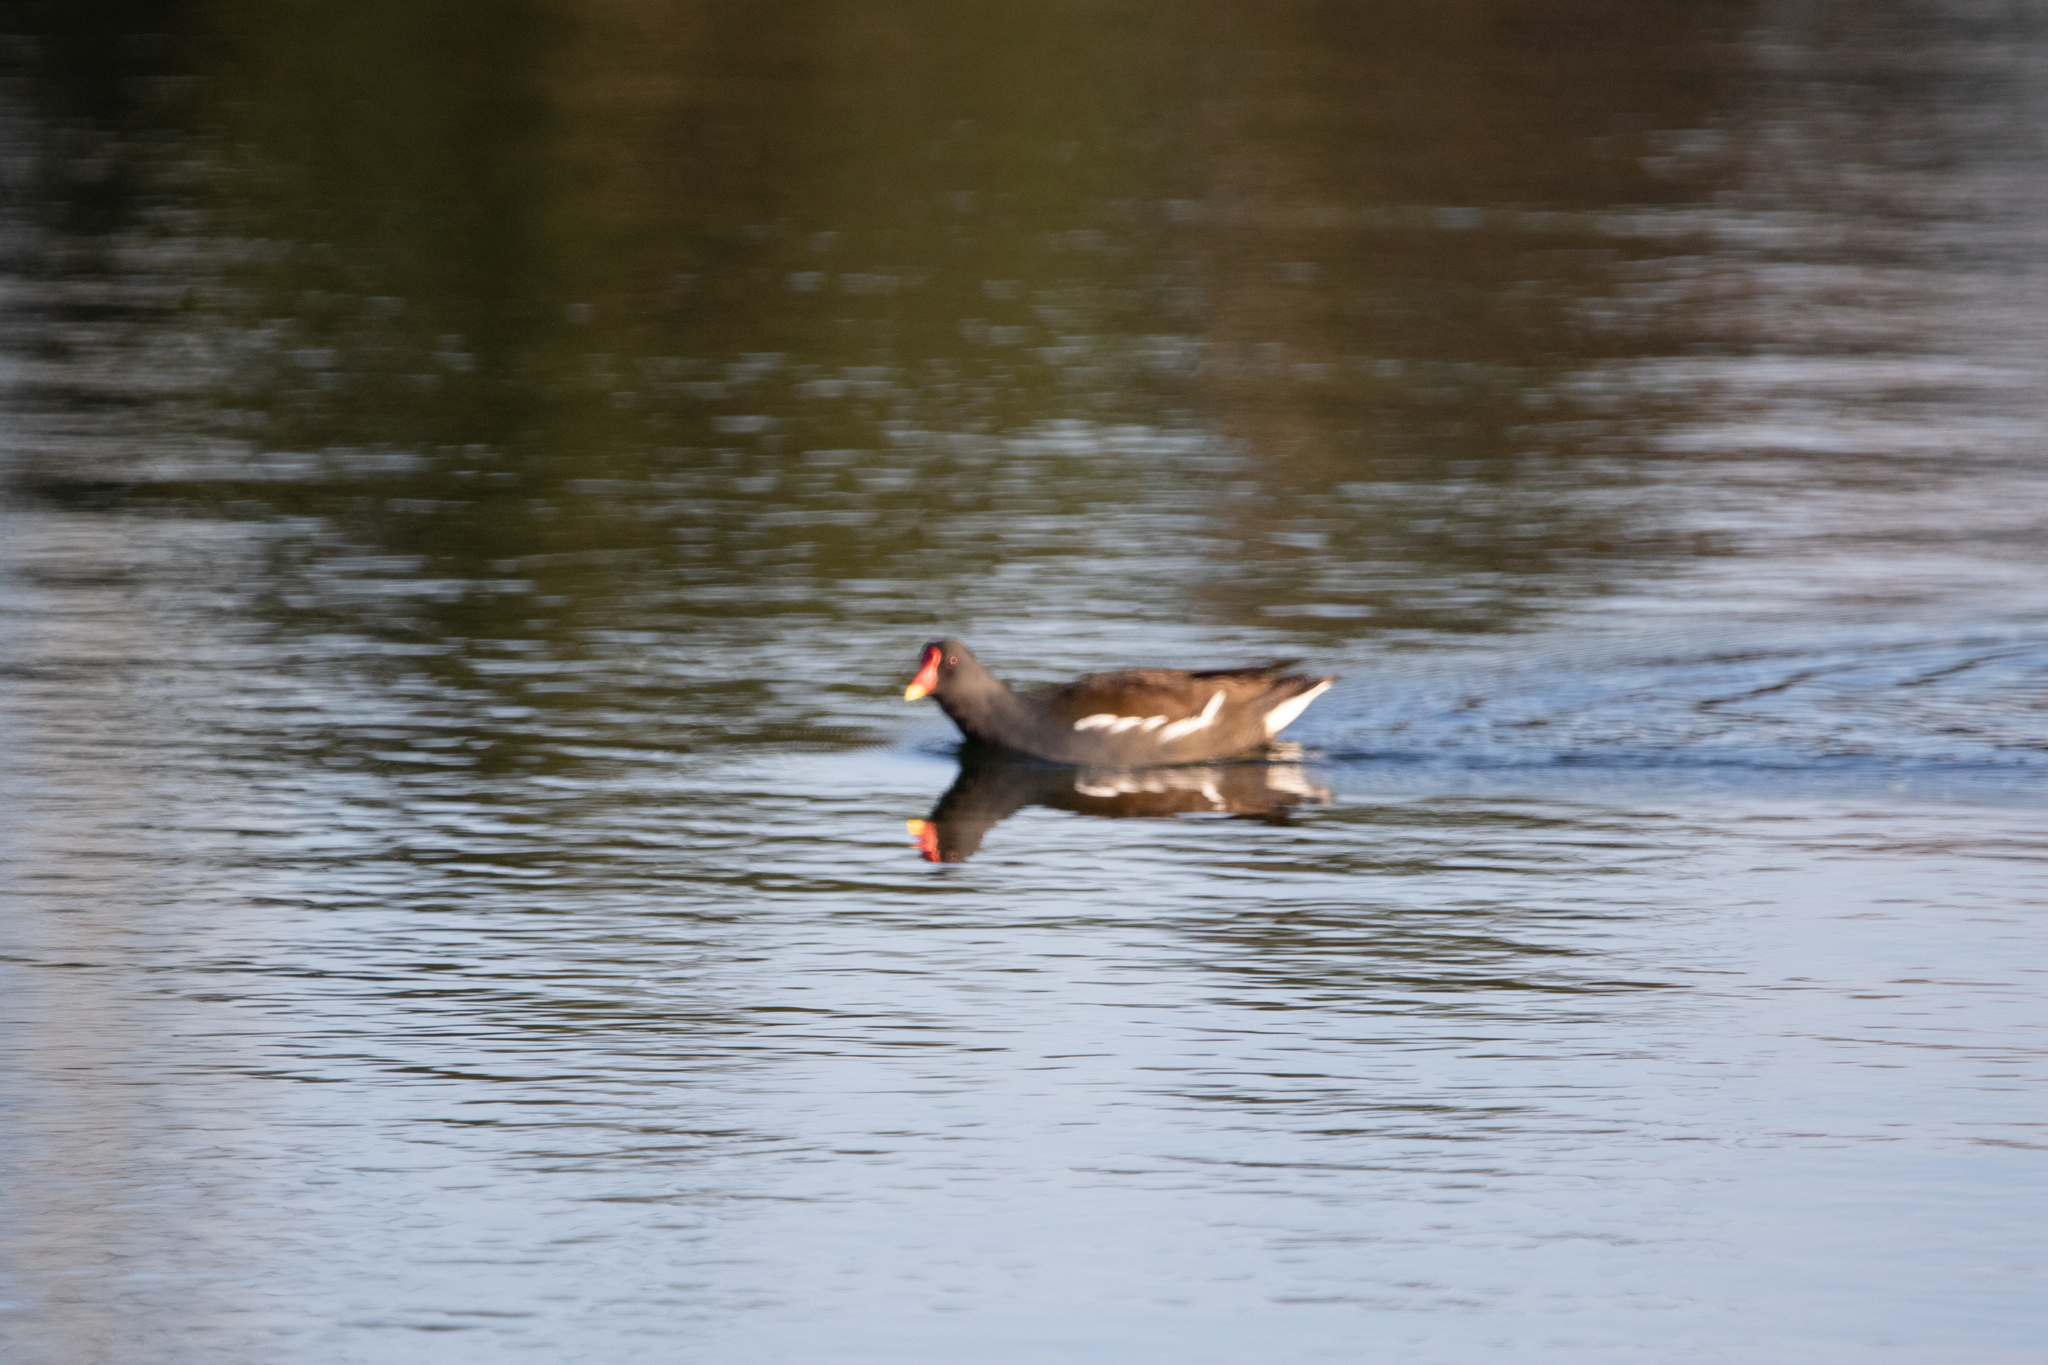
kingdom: Animalia
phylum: Chordata
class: Aves
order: Gruiformes
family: Rallidae
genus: Gallinula
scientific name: Gallinula chloropus
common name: Common moorhen
